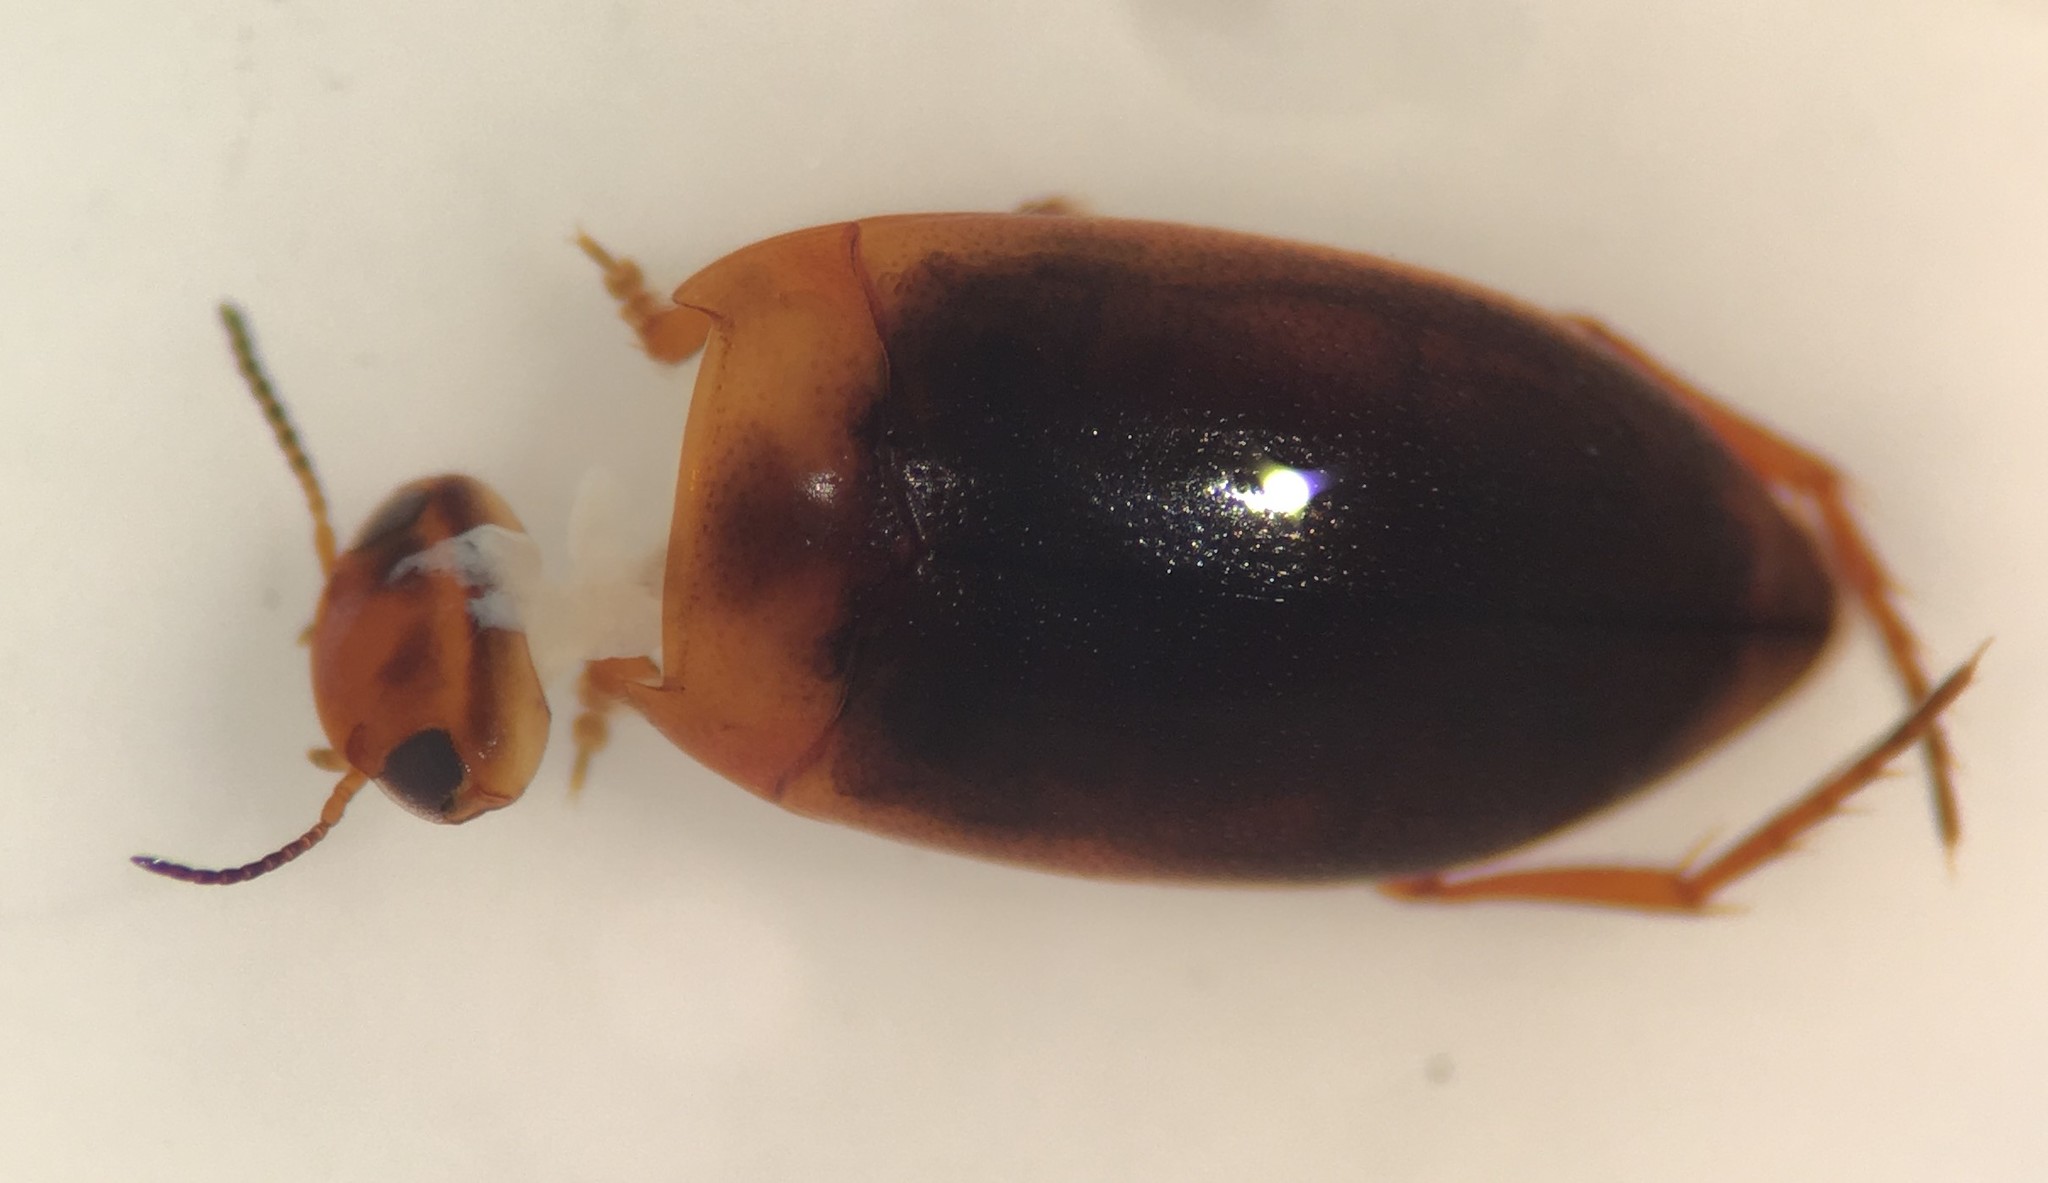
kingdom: Animalia
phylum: Arthropoda
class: Insecta
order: Coleoptera
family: Dytiscidae
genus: Hydroporus
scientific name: Hydroporus brevicornis
